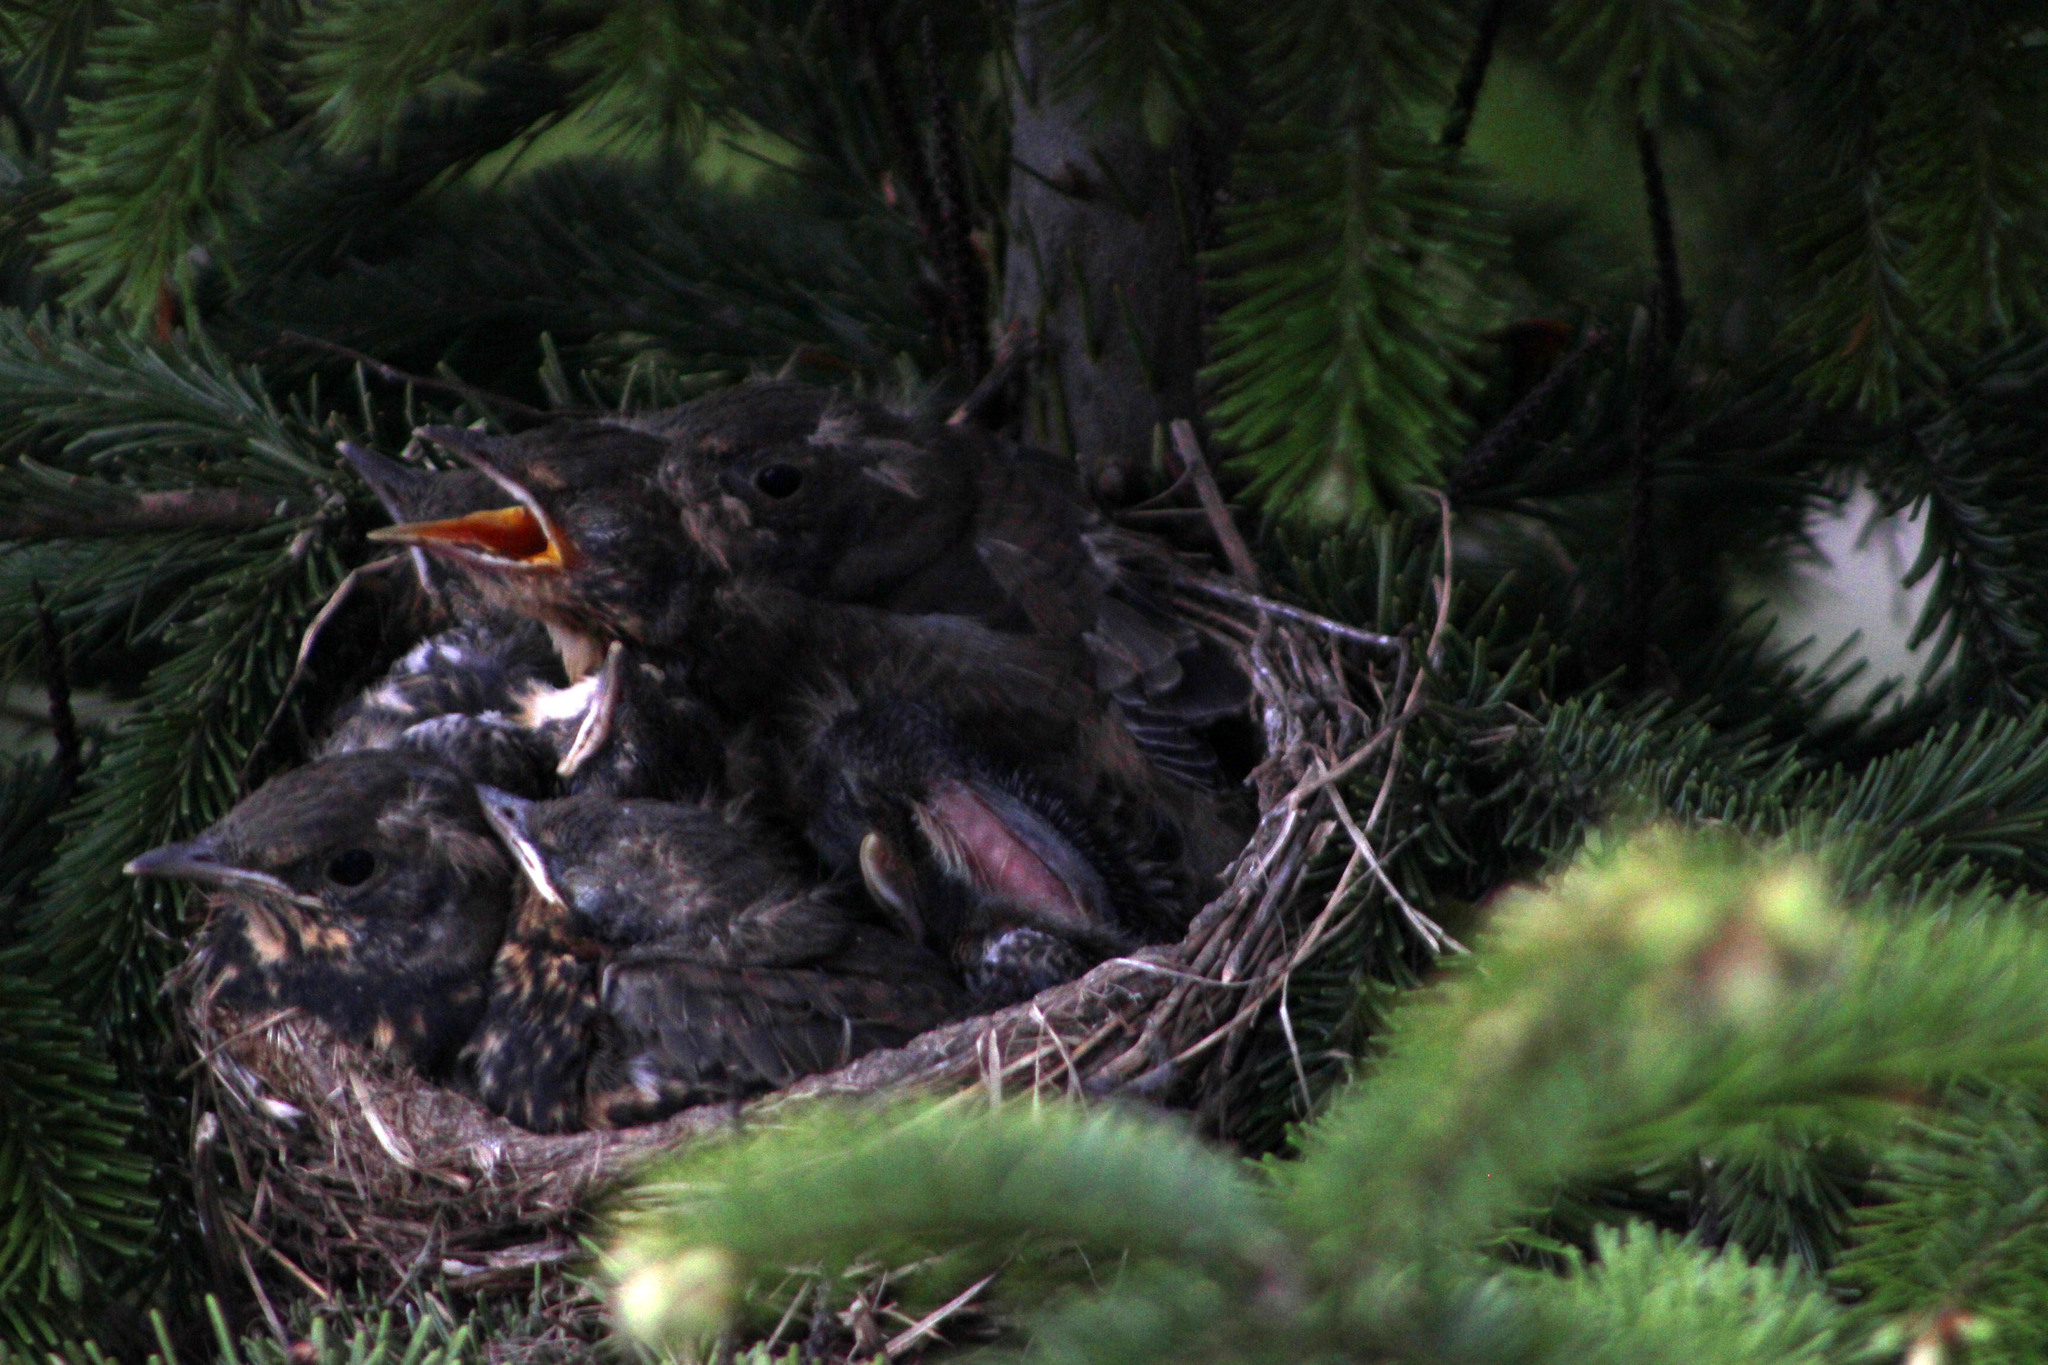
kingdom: Animalia
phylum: Chordata
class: Aves
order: Passeriformes
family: Turdidae
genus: Turdus
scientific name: Turdus pilaris
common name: Fieldfare
